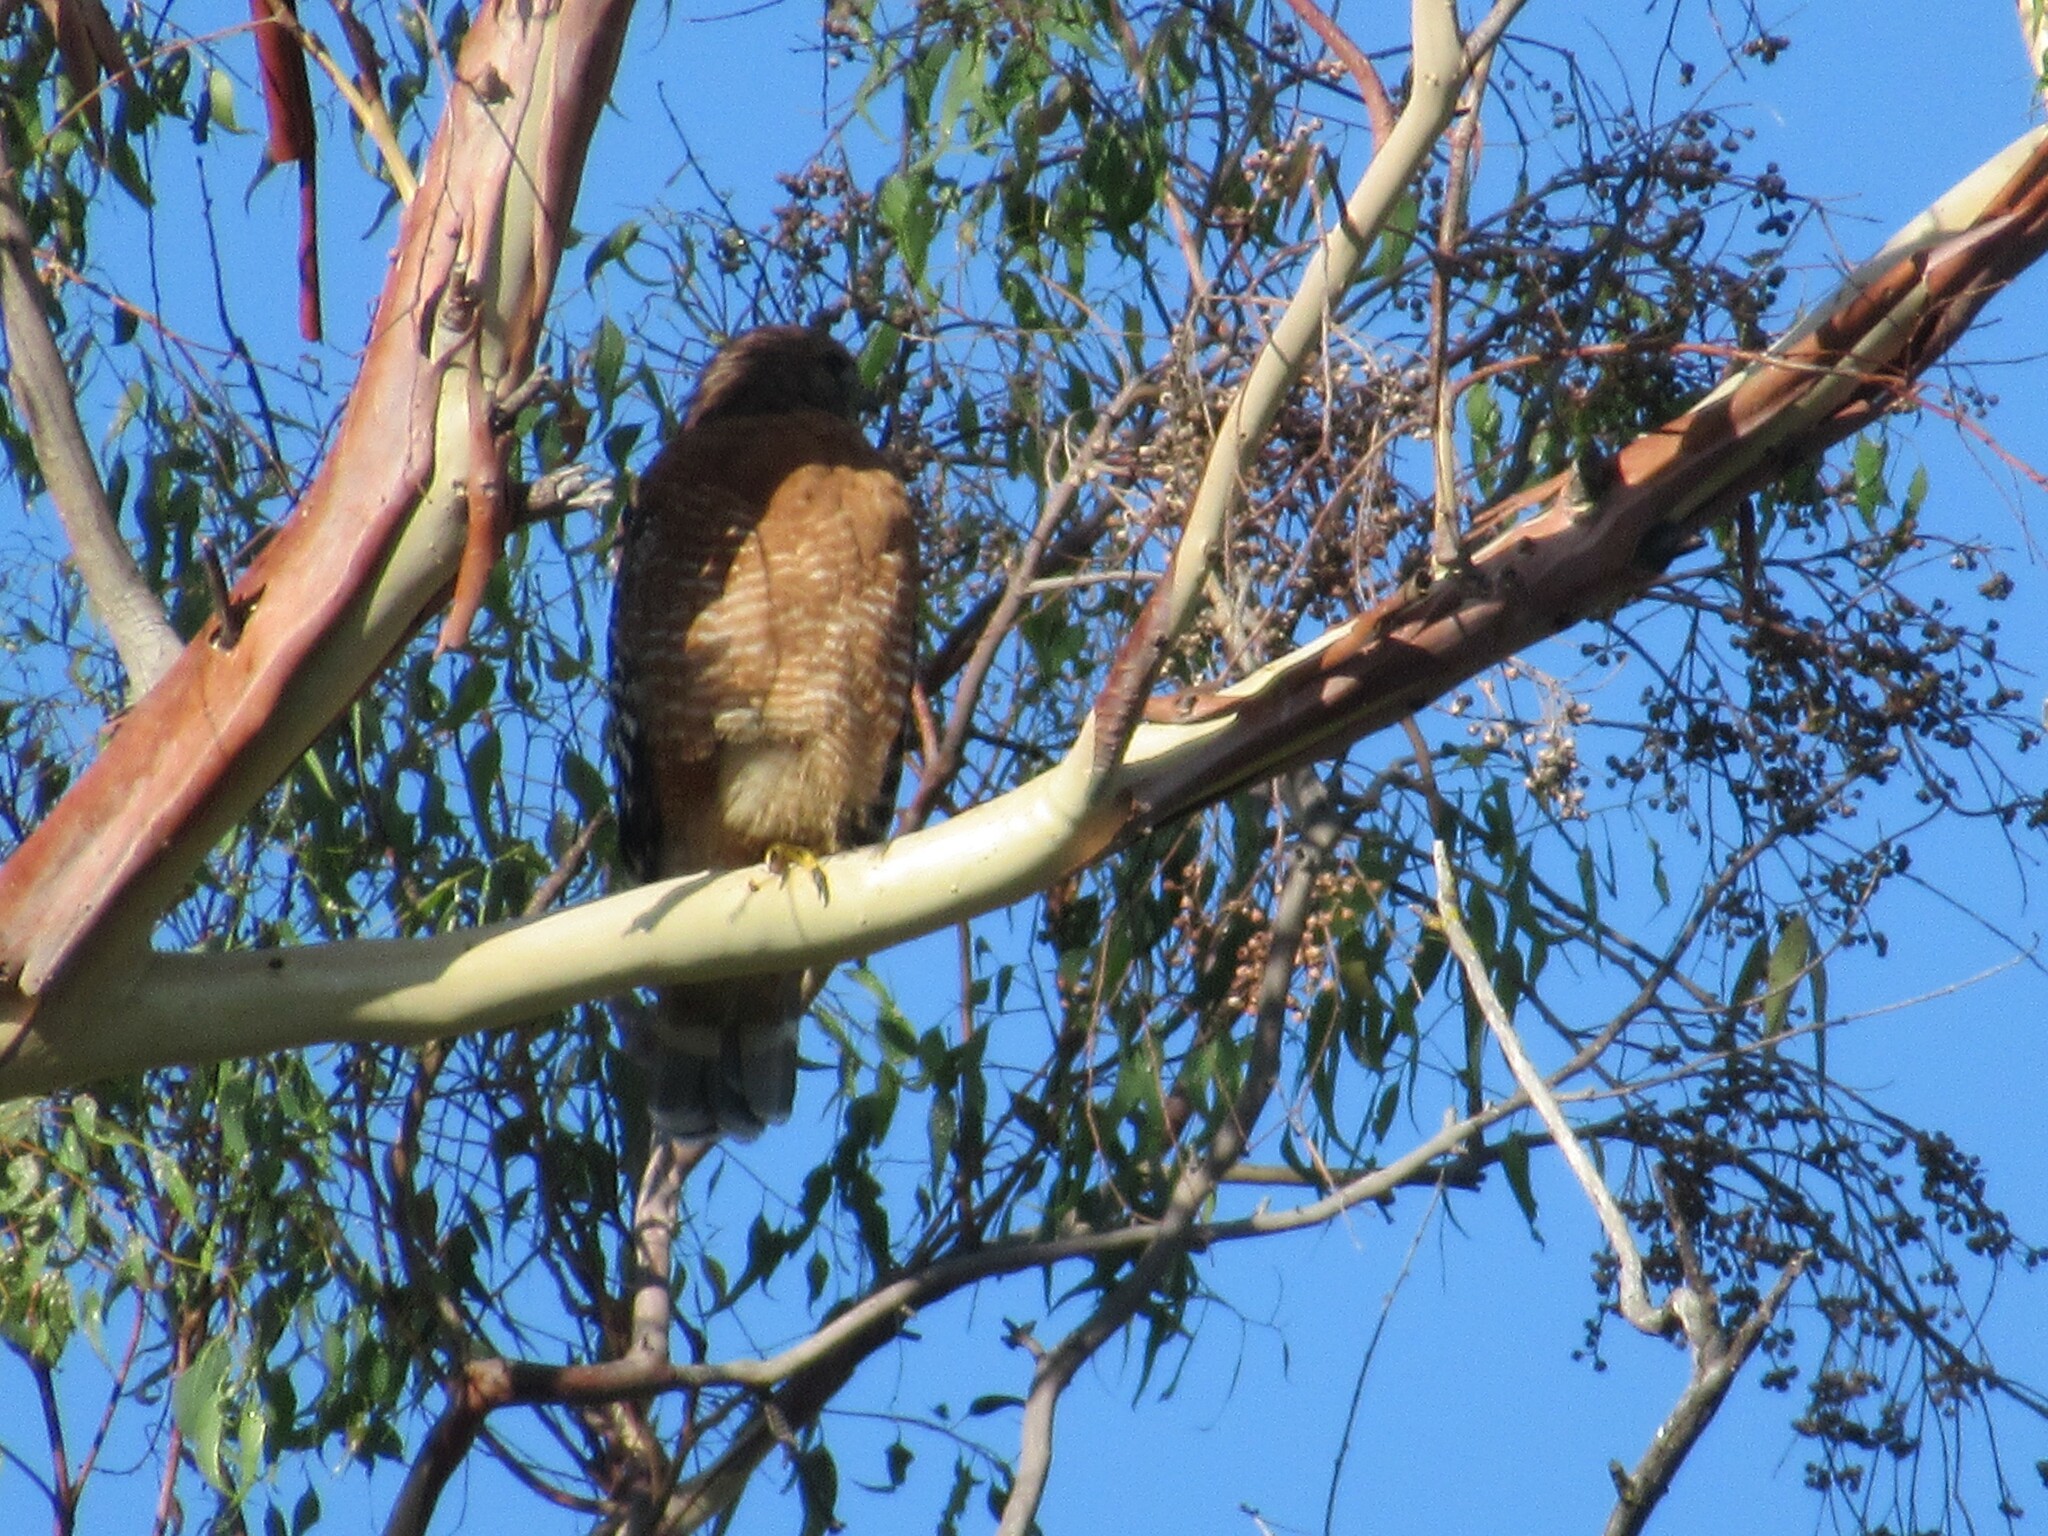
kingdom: Animalia
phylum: Chordata
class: Aves
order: Accipitriformes
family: Accipitridae
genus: Buteo
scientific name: Buteo lineatus
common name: Red-shouldered hawk
